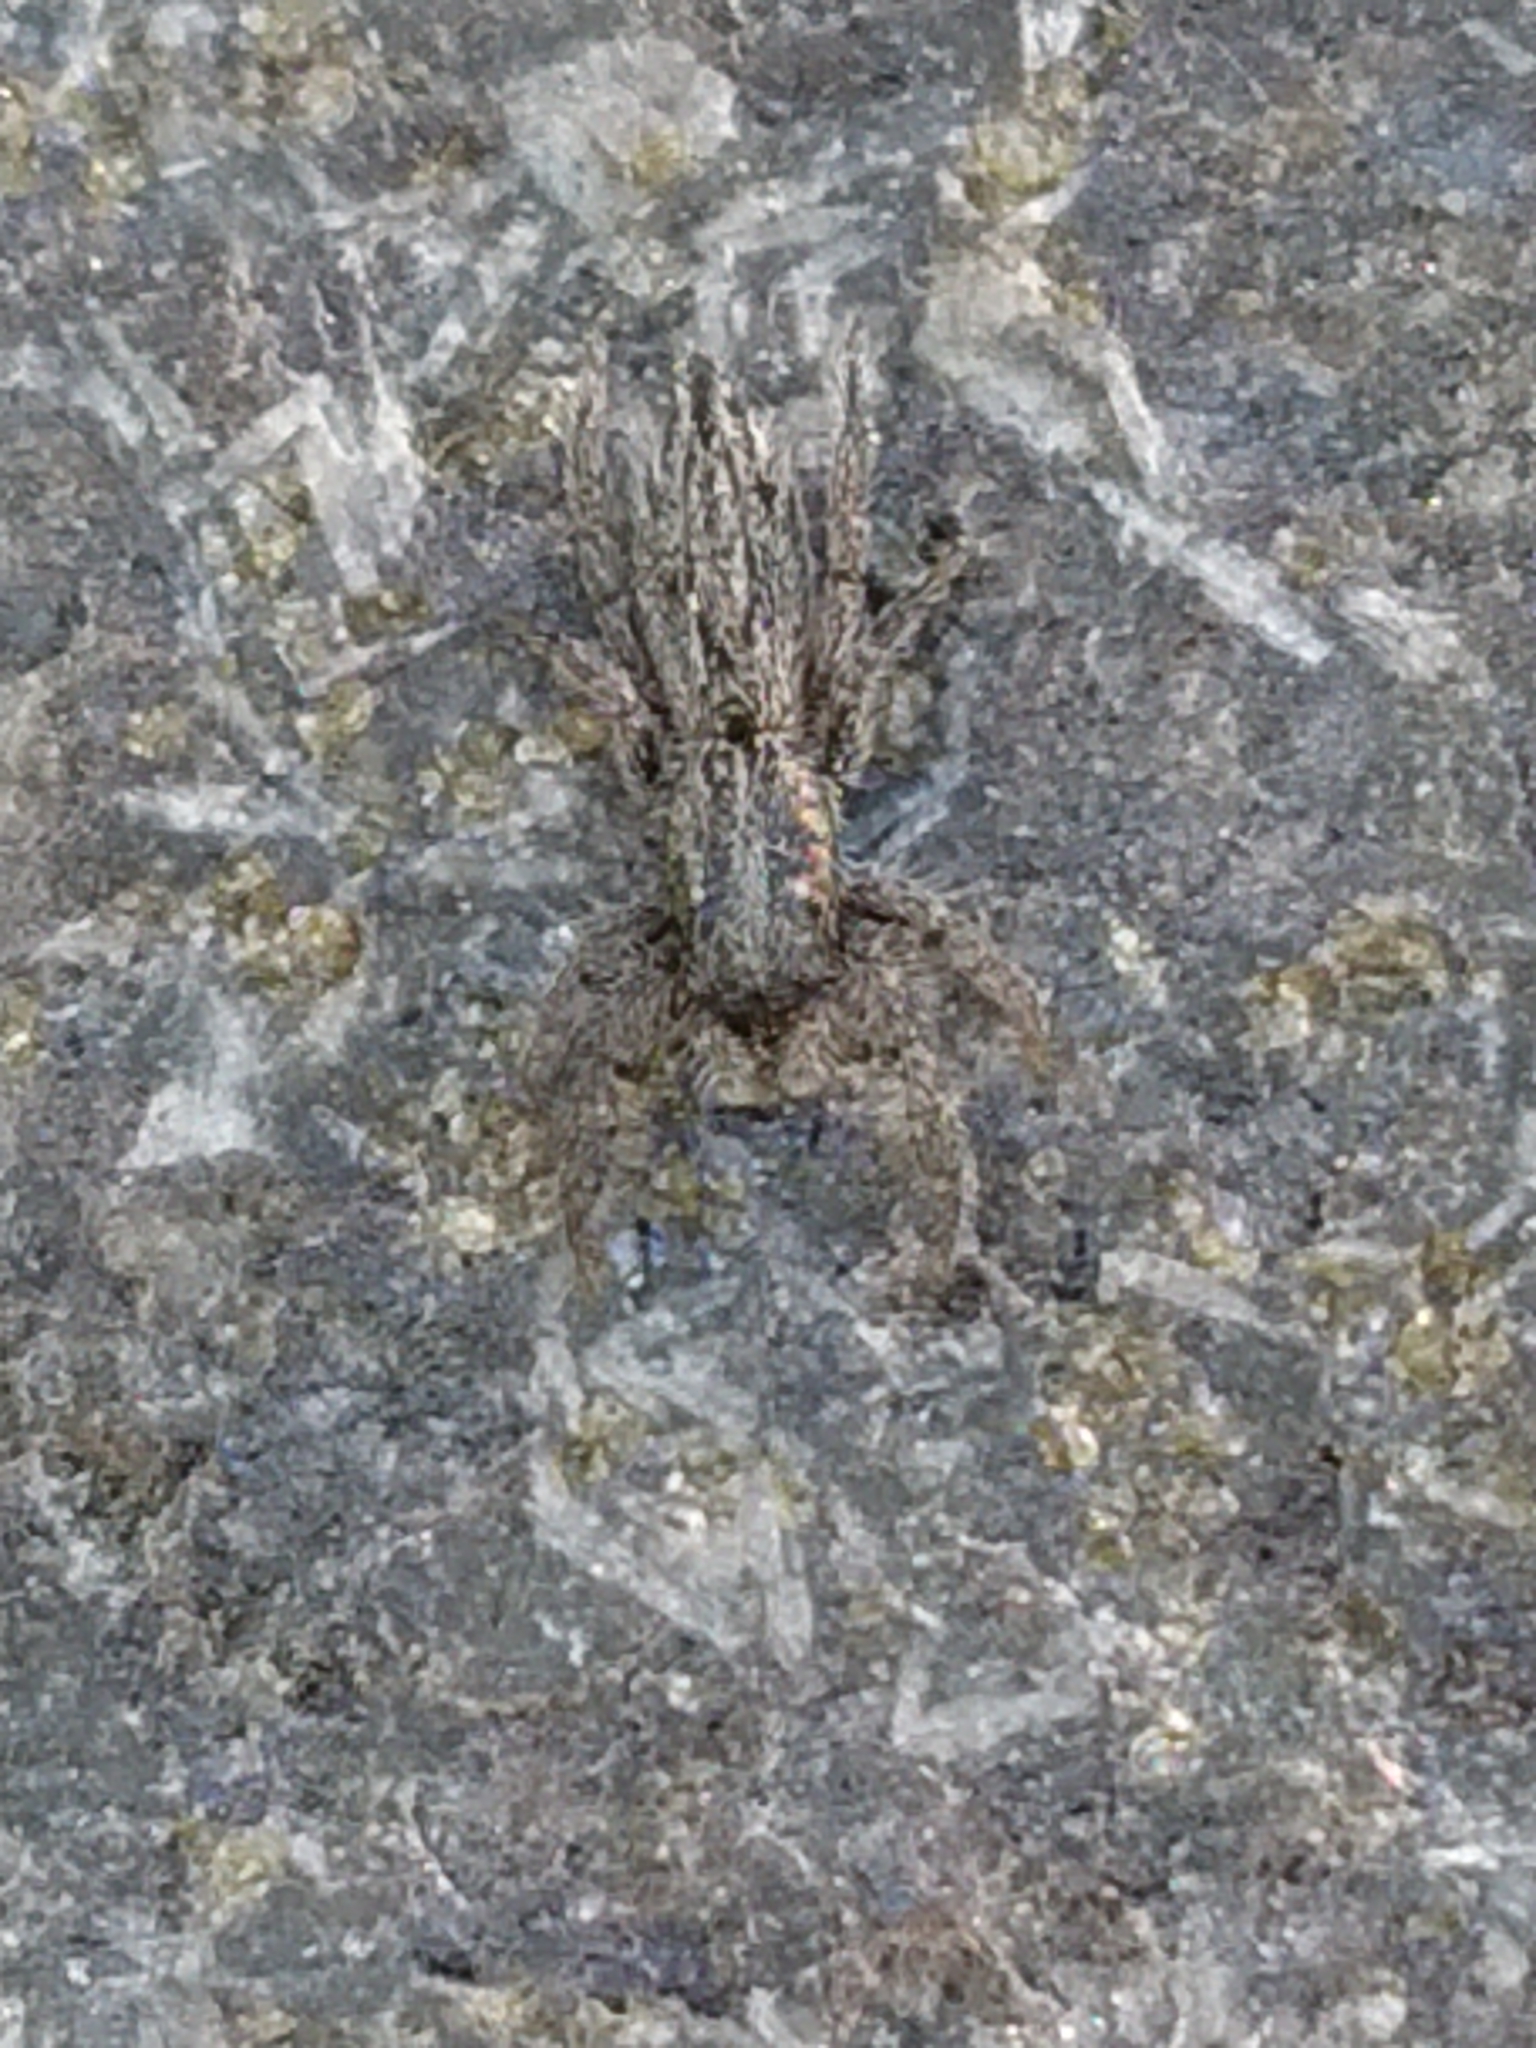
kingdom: Animalia
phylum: Arthropoda
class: Arachnida
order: Araneae
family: Salticidae
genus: Holoplatys
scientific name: Holoplatys apressus
